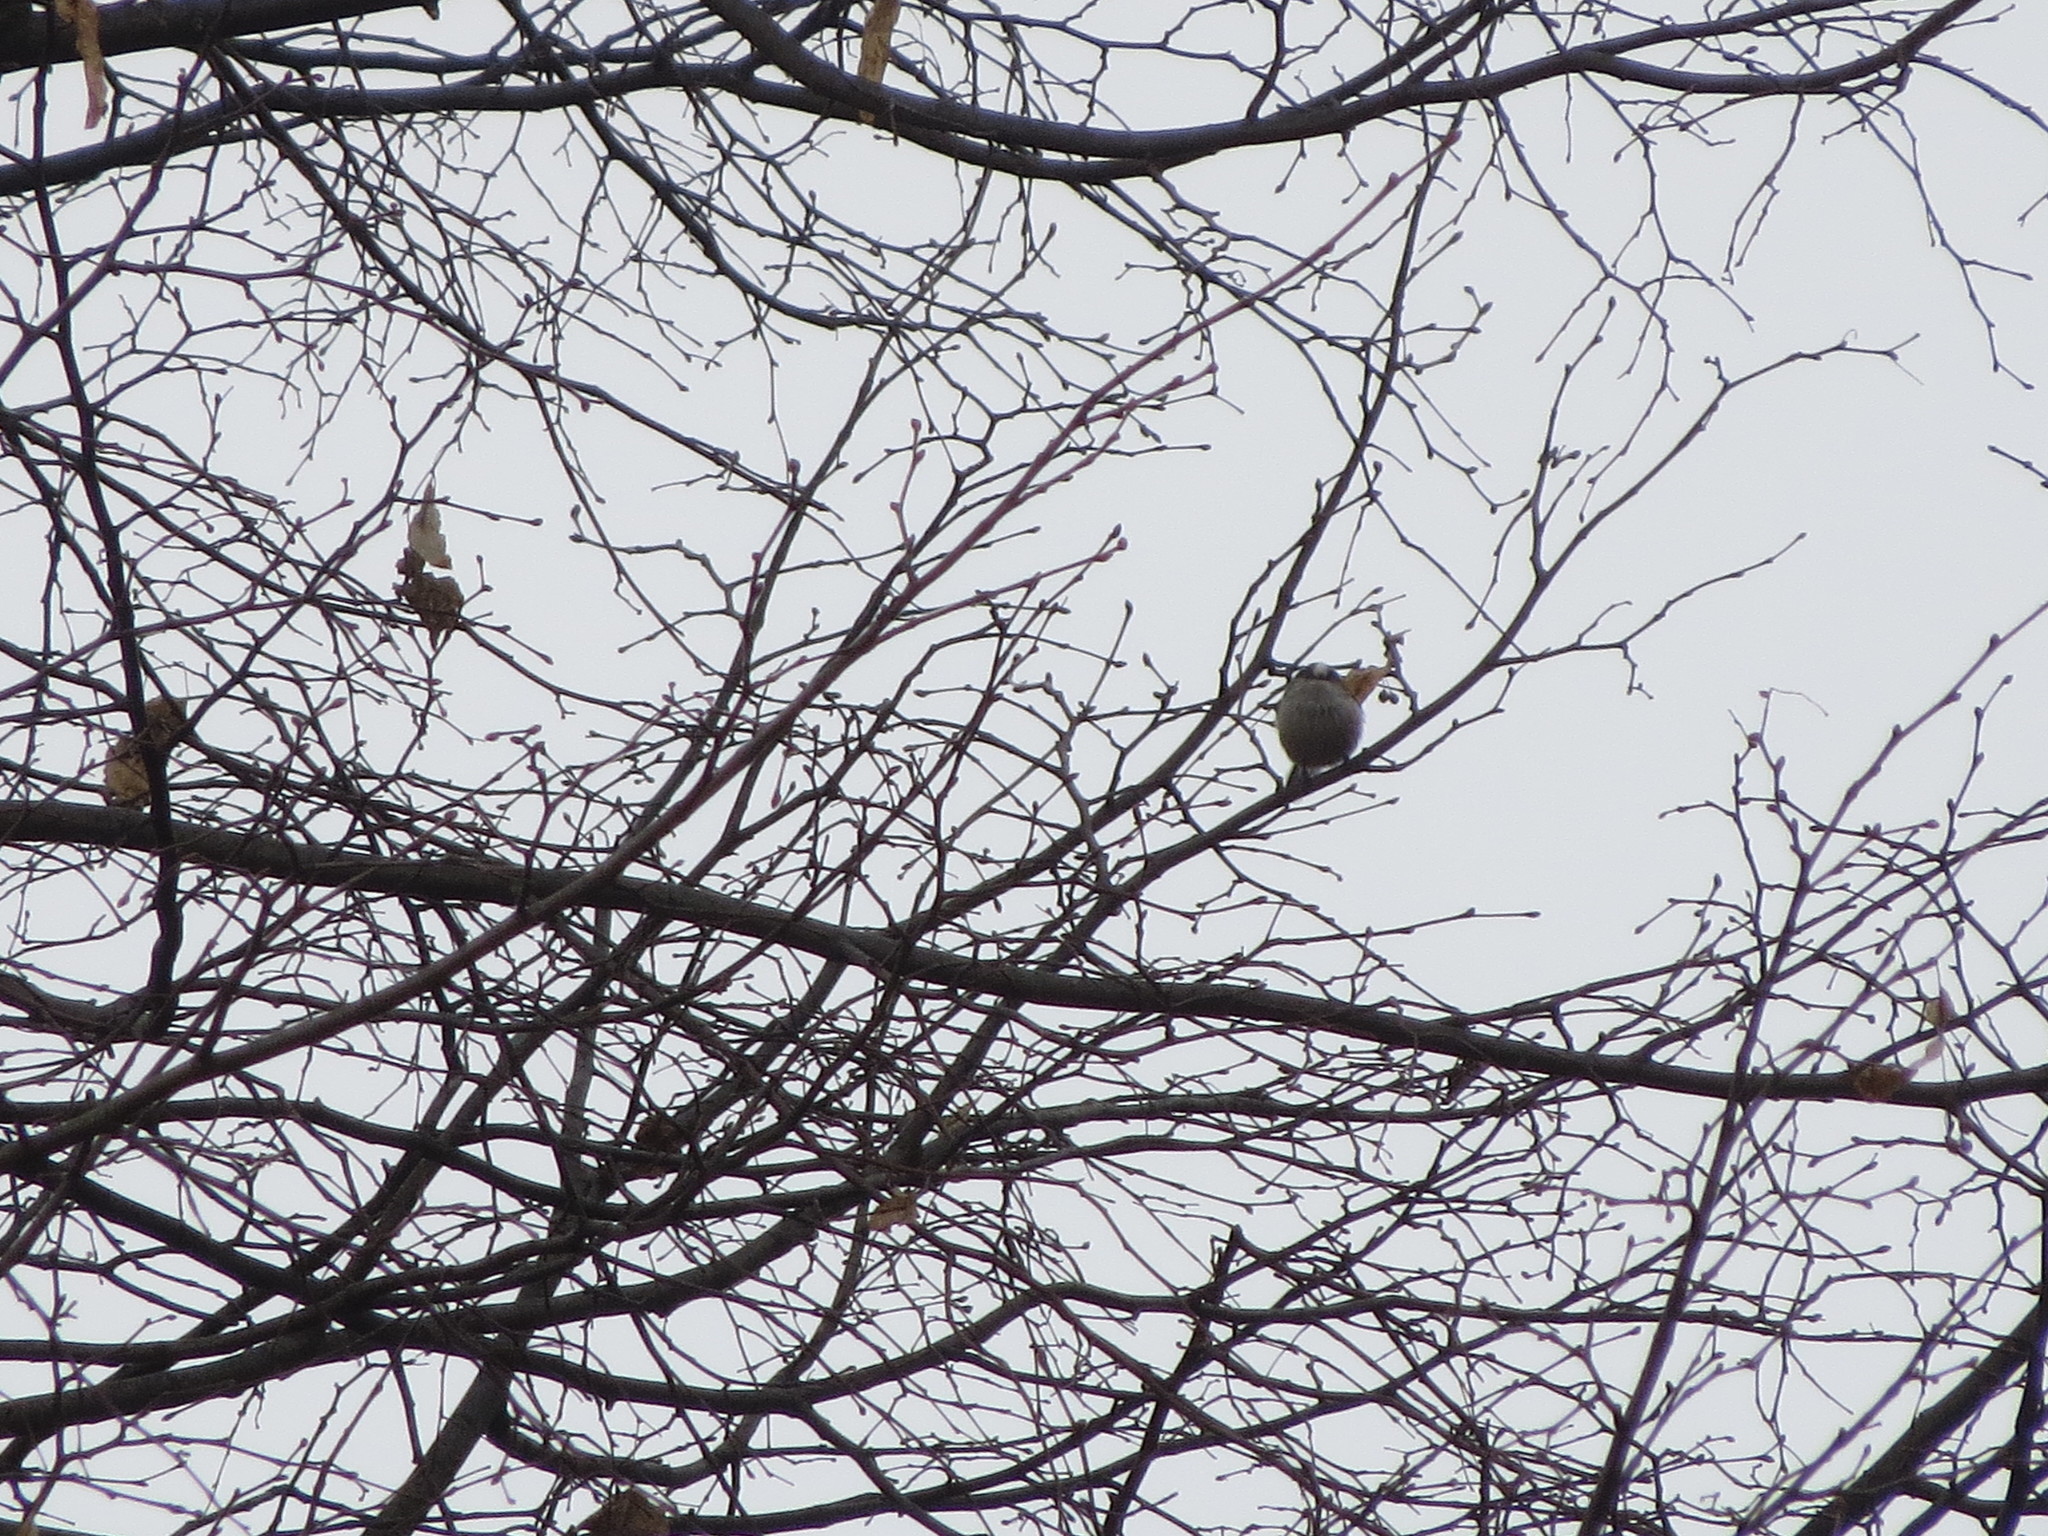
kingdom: Animalia
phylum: Chordata
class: Aves
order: Passeriformes
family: Aegithalidae
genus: Aegithalos
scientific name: Aegithalos caudatus
